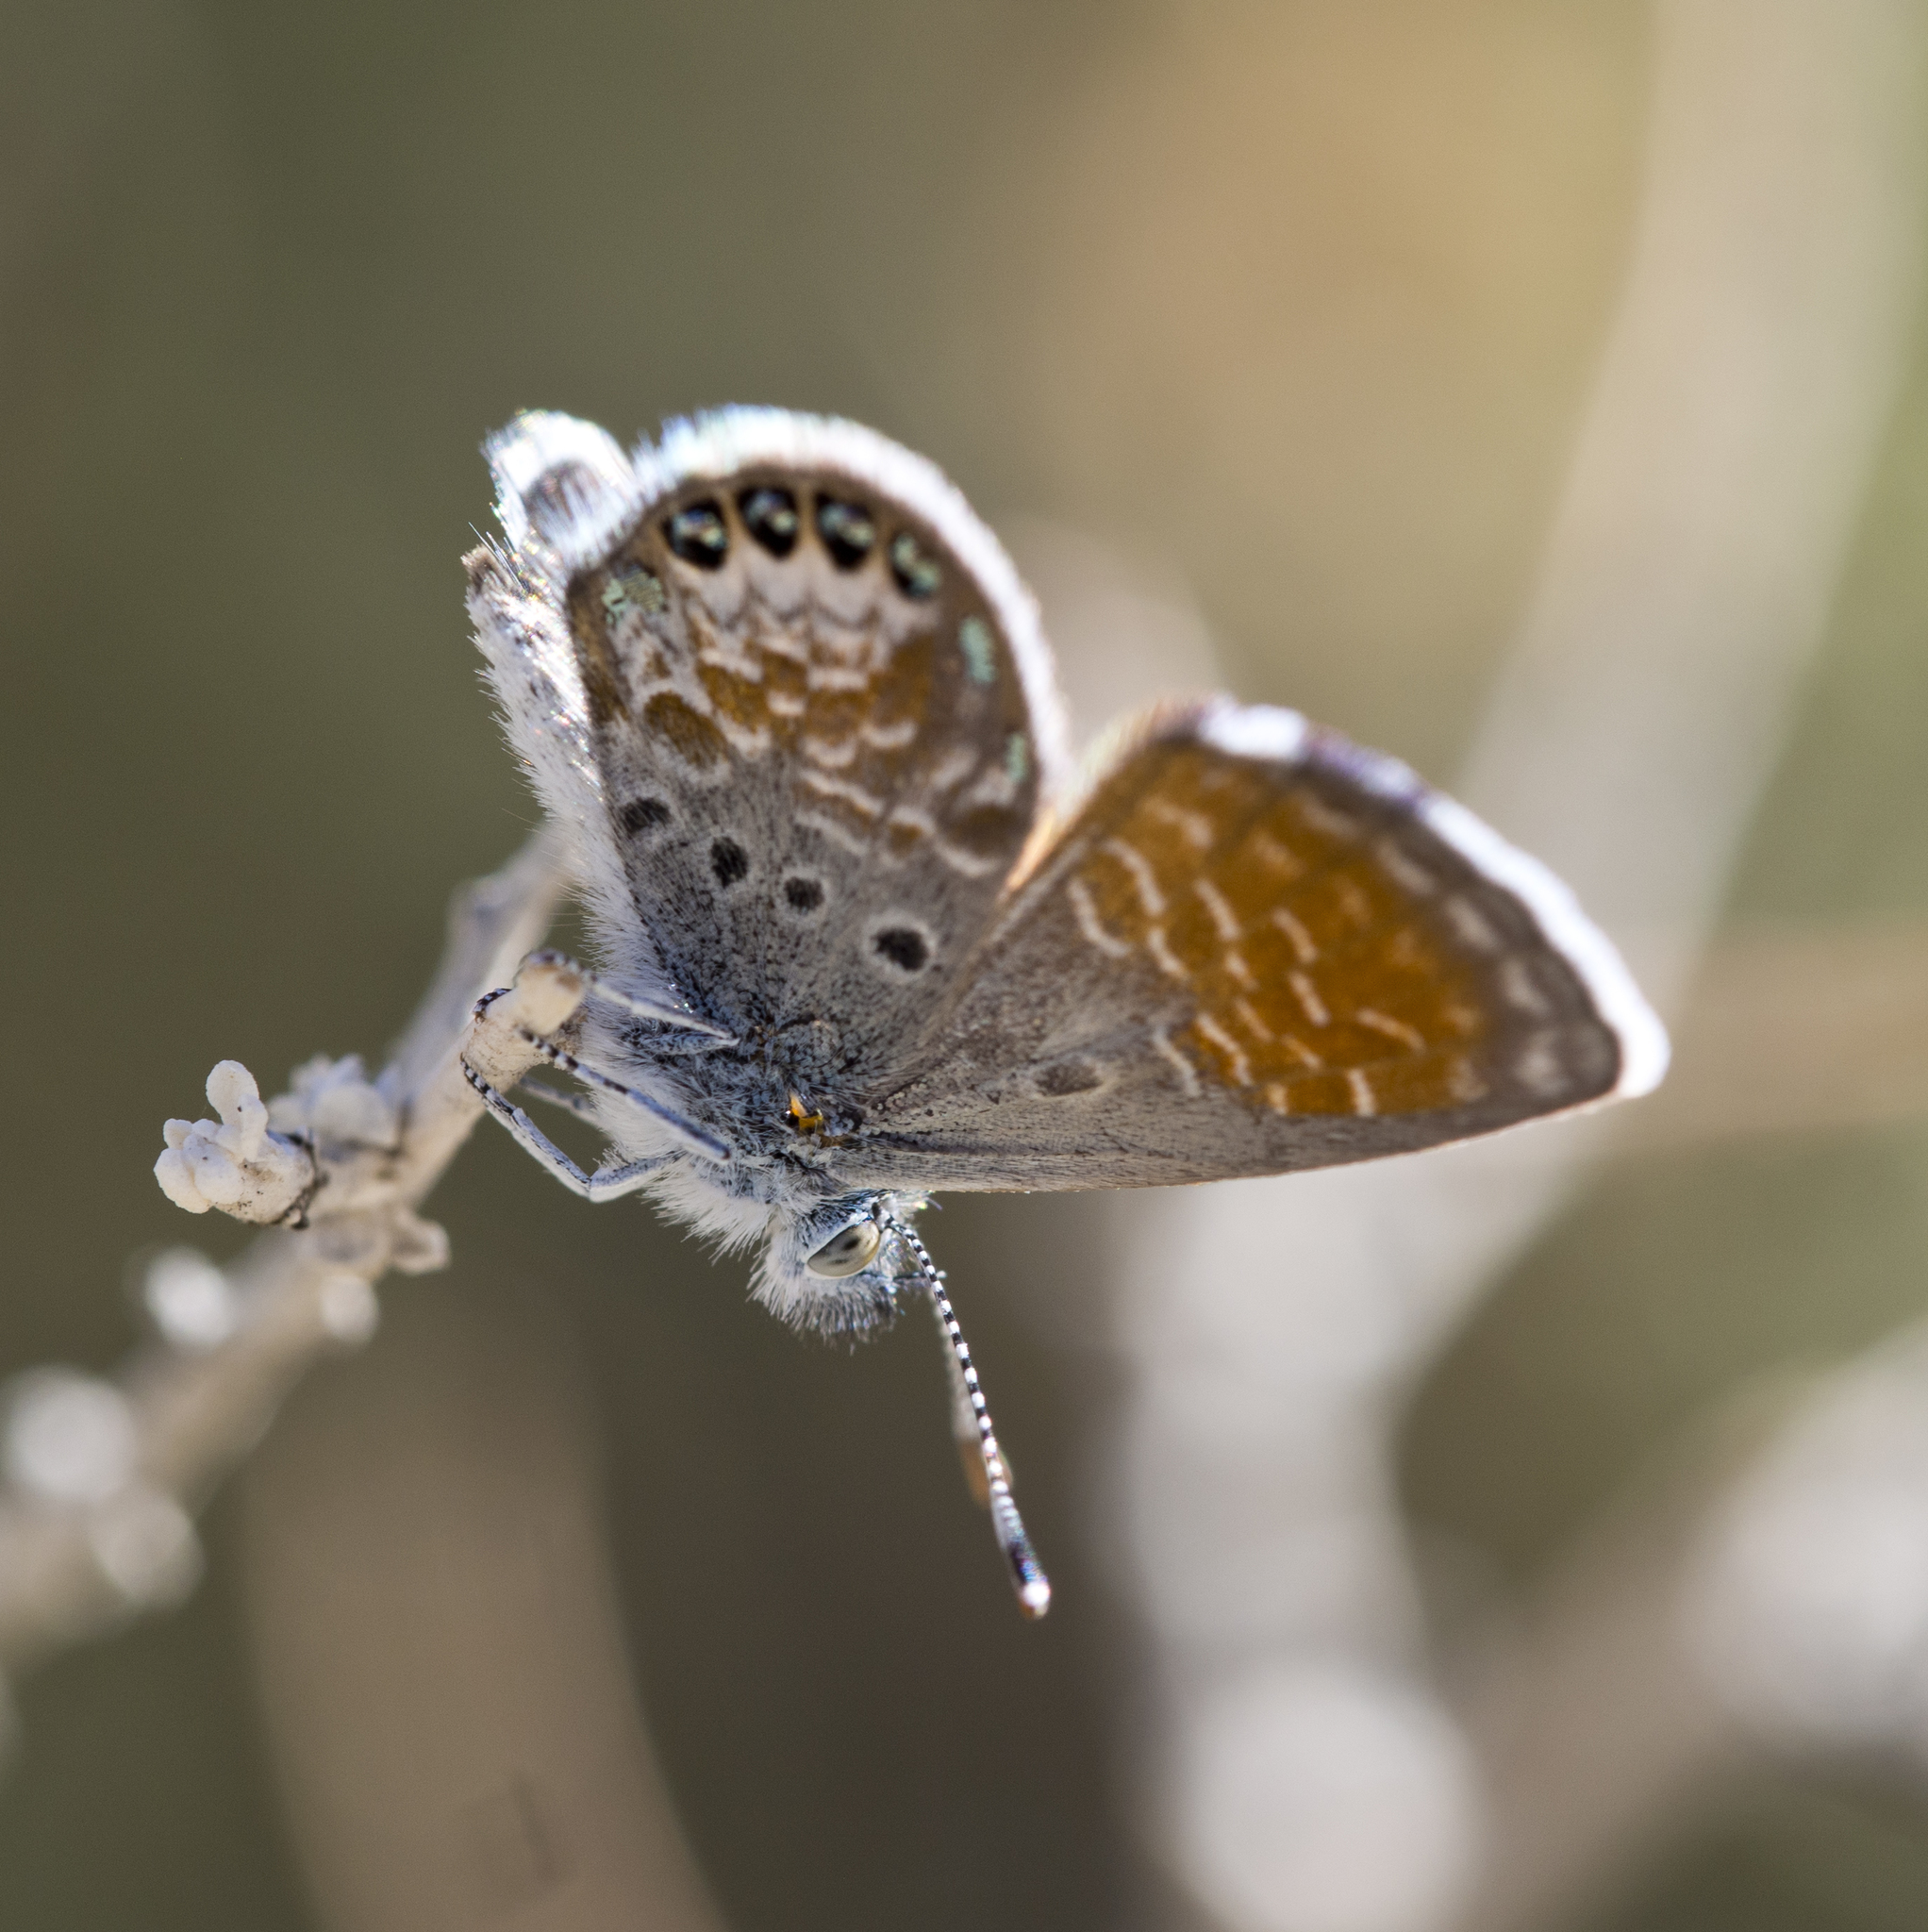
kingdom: Animalia
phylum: Arthropoda
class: Insecta
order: Lepidoptera
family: Lycaenidae
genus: Brephidium
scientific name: Brephidium exilis
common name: Pygmy blue
